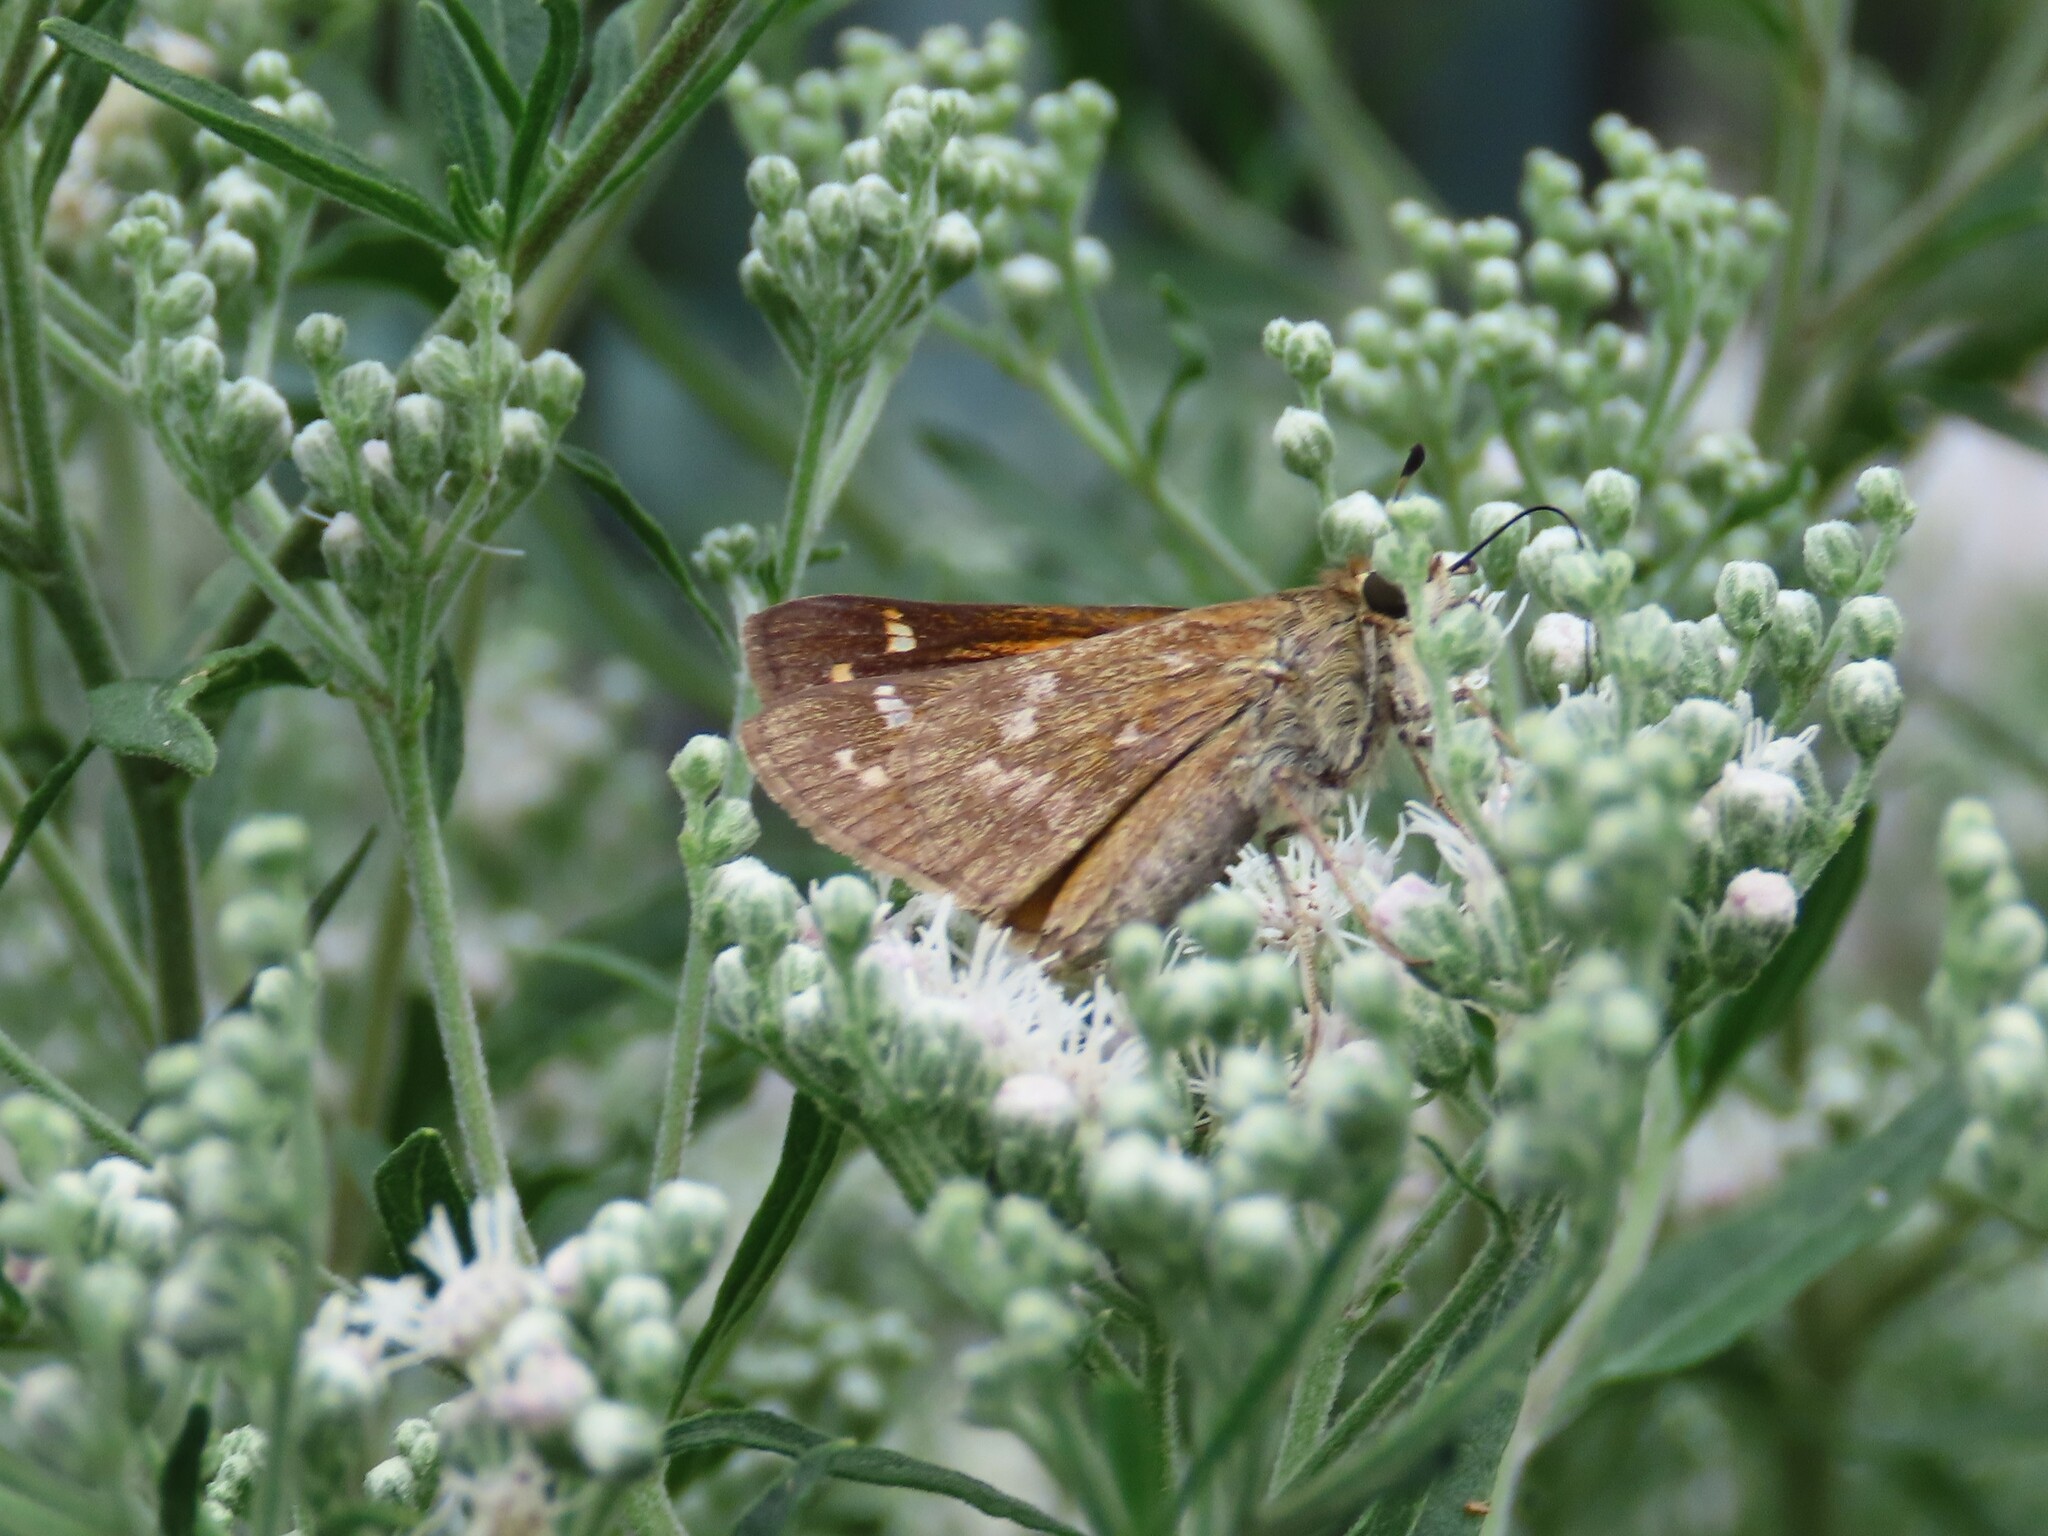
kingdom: Animalia
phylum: Arthropoda
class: Insecta
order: Lepidoptera
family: Hesperiidae
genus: Atalopedes
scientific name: Atalopedes
